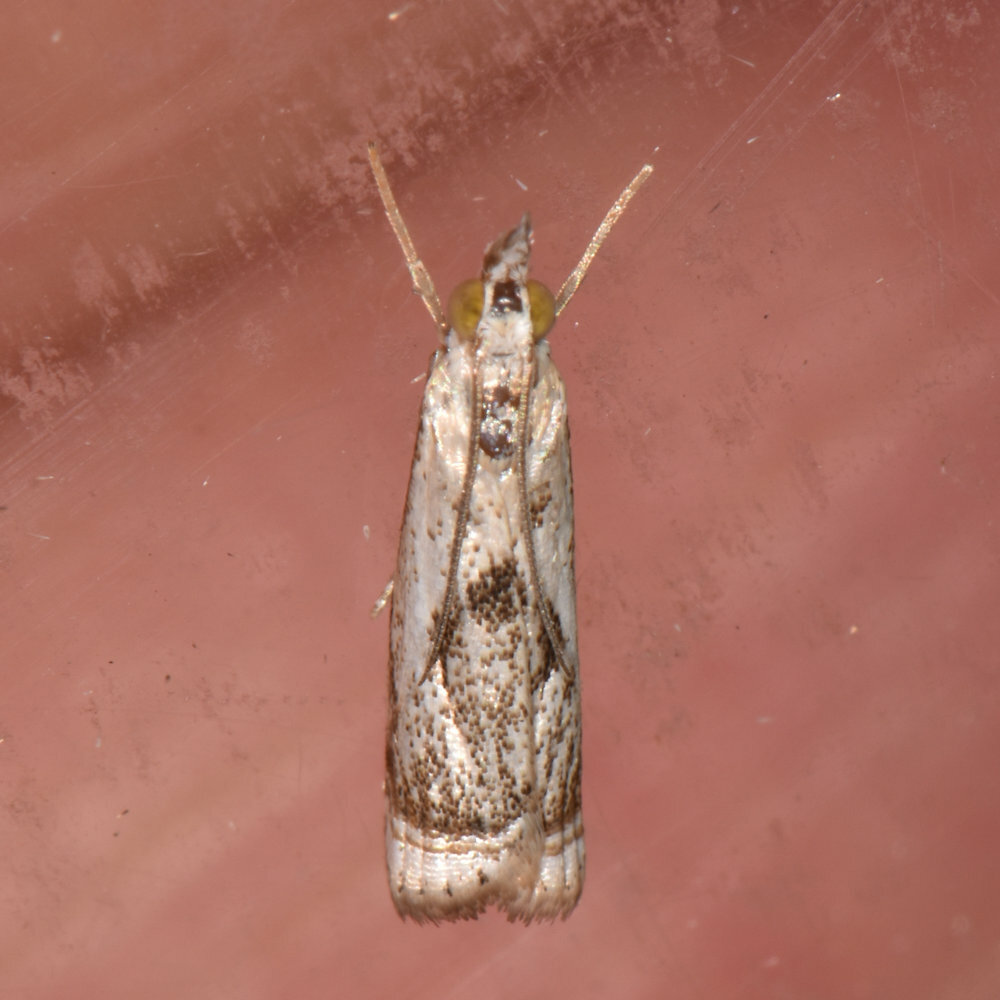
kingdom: Animalia
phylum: Arthropoda
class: Insecta
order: Lepidoptera
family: Crambidae
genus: Microcrambus
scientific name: Microcrambus elegans
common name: Elegant grass-veneer
